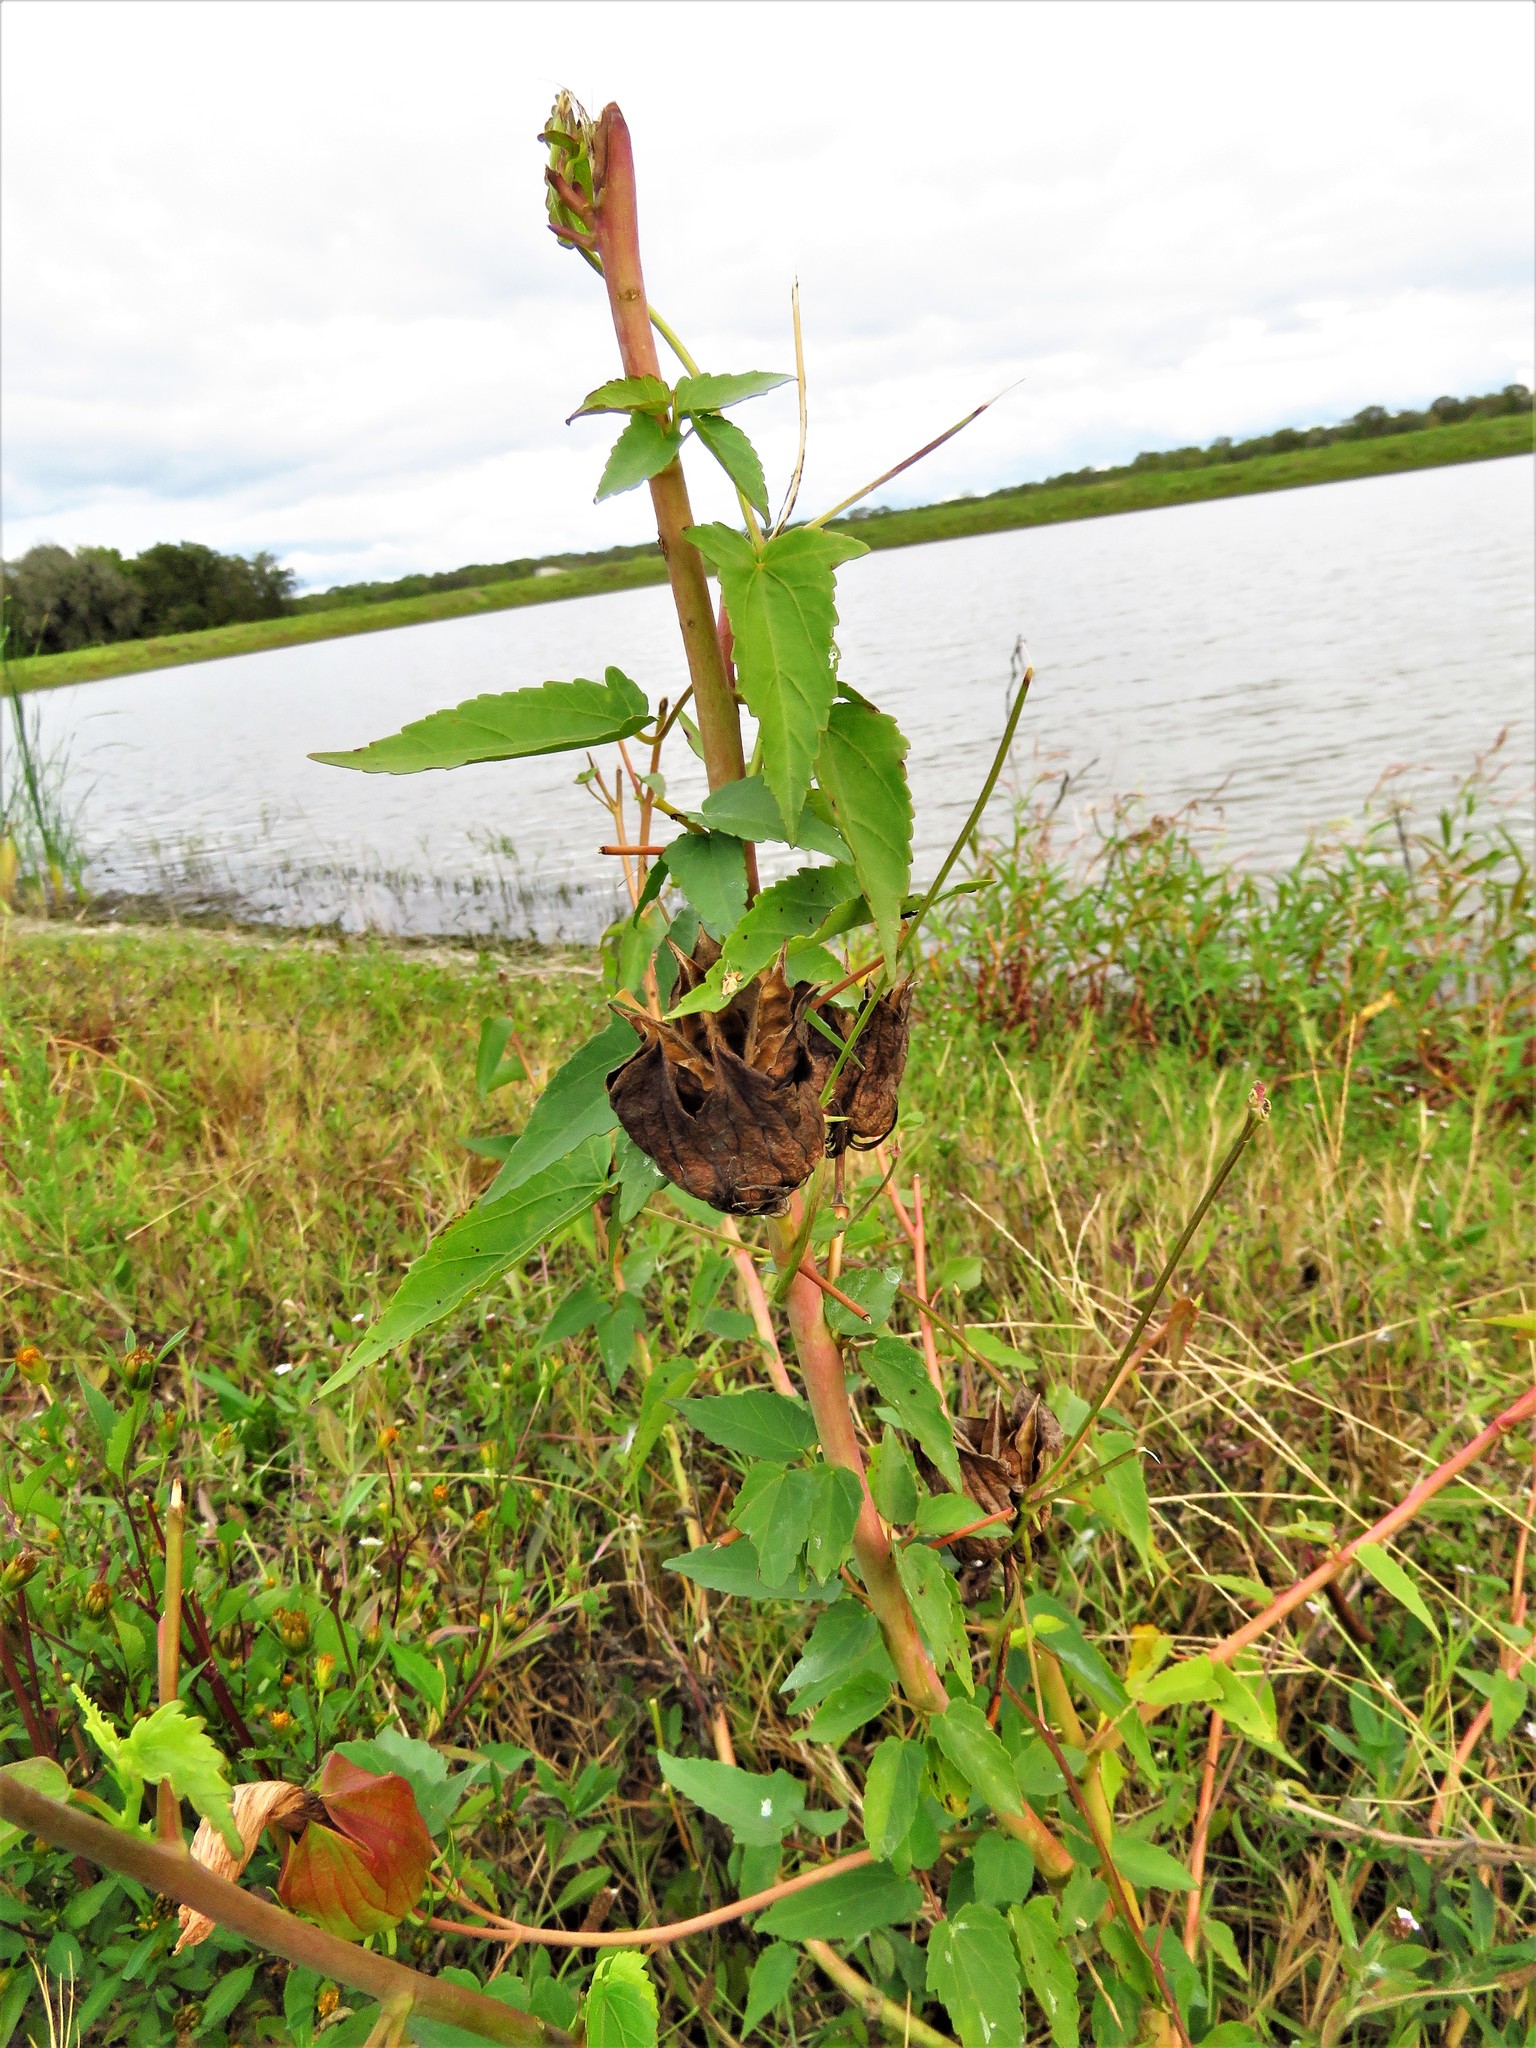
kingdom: Plantae
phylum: Tracheophyta
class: Magnoliopsida
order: Malvales
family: Malvaceae
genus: Hibiscus
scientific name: Hibiscus laevis
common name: Scarlet rose-mallow
